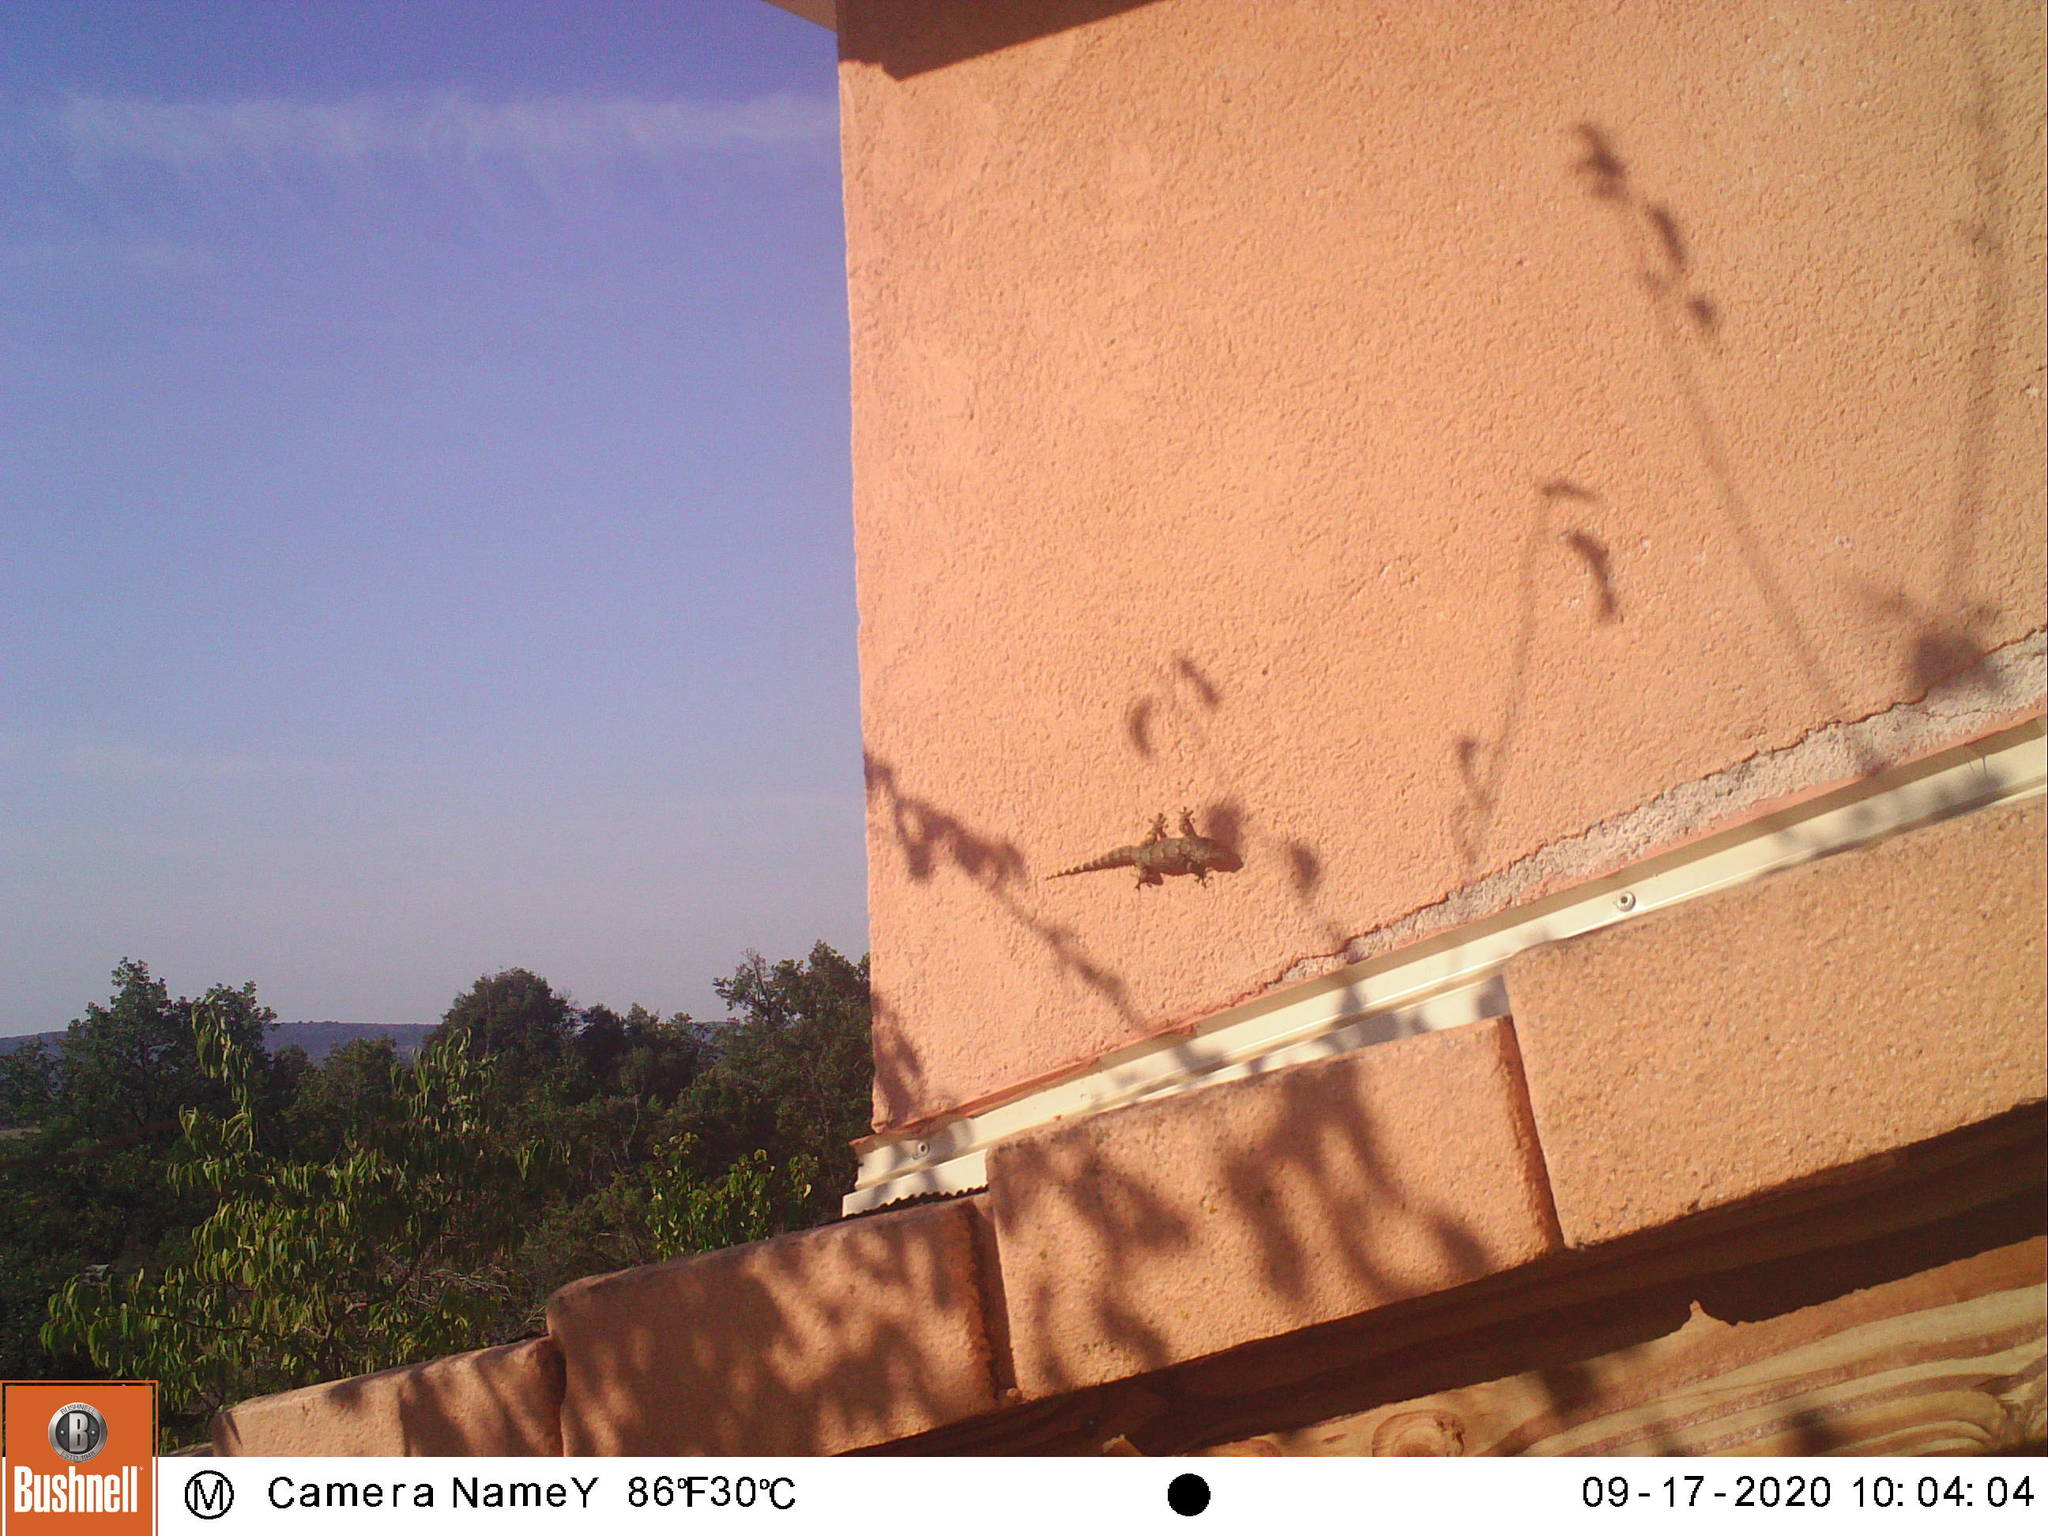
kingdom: Animalia
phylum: Chordata
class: Squamata
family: Phyllodactylidae
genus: Tarentola
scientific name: Tarentola mauritanica
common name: Moorish gecko
